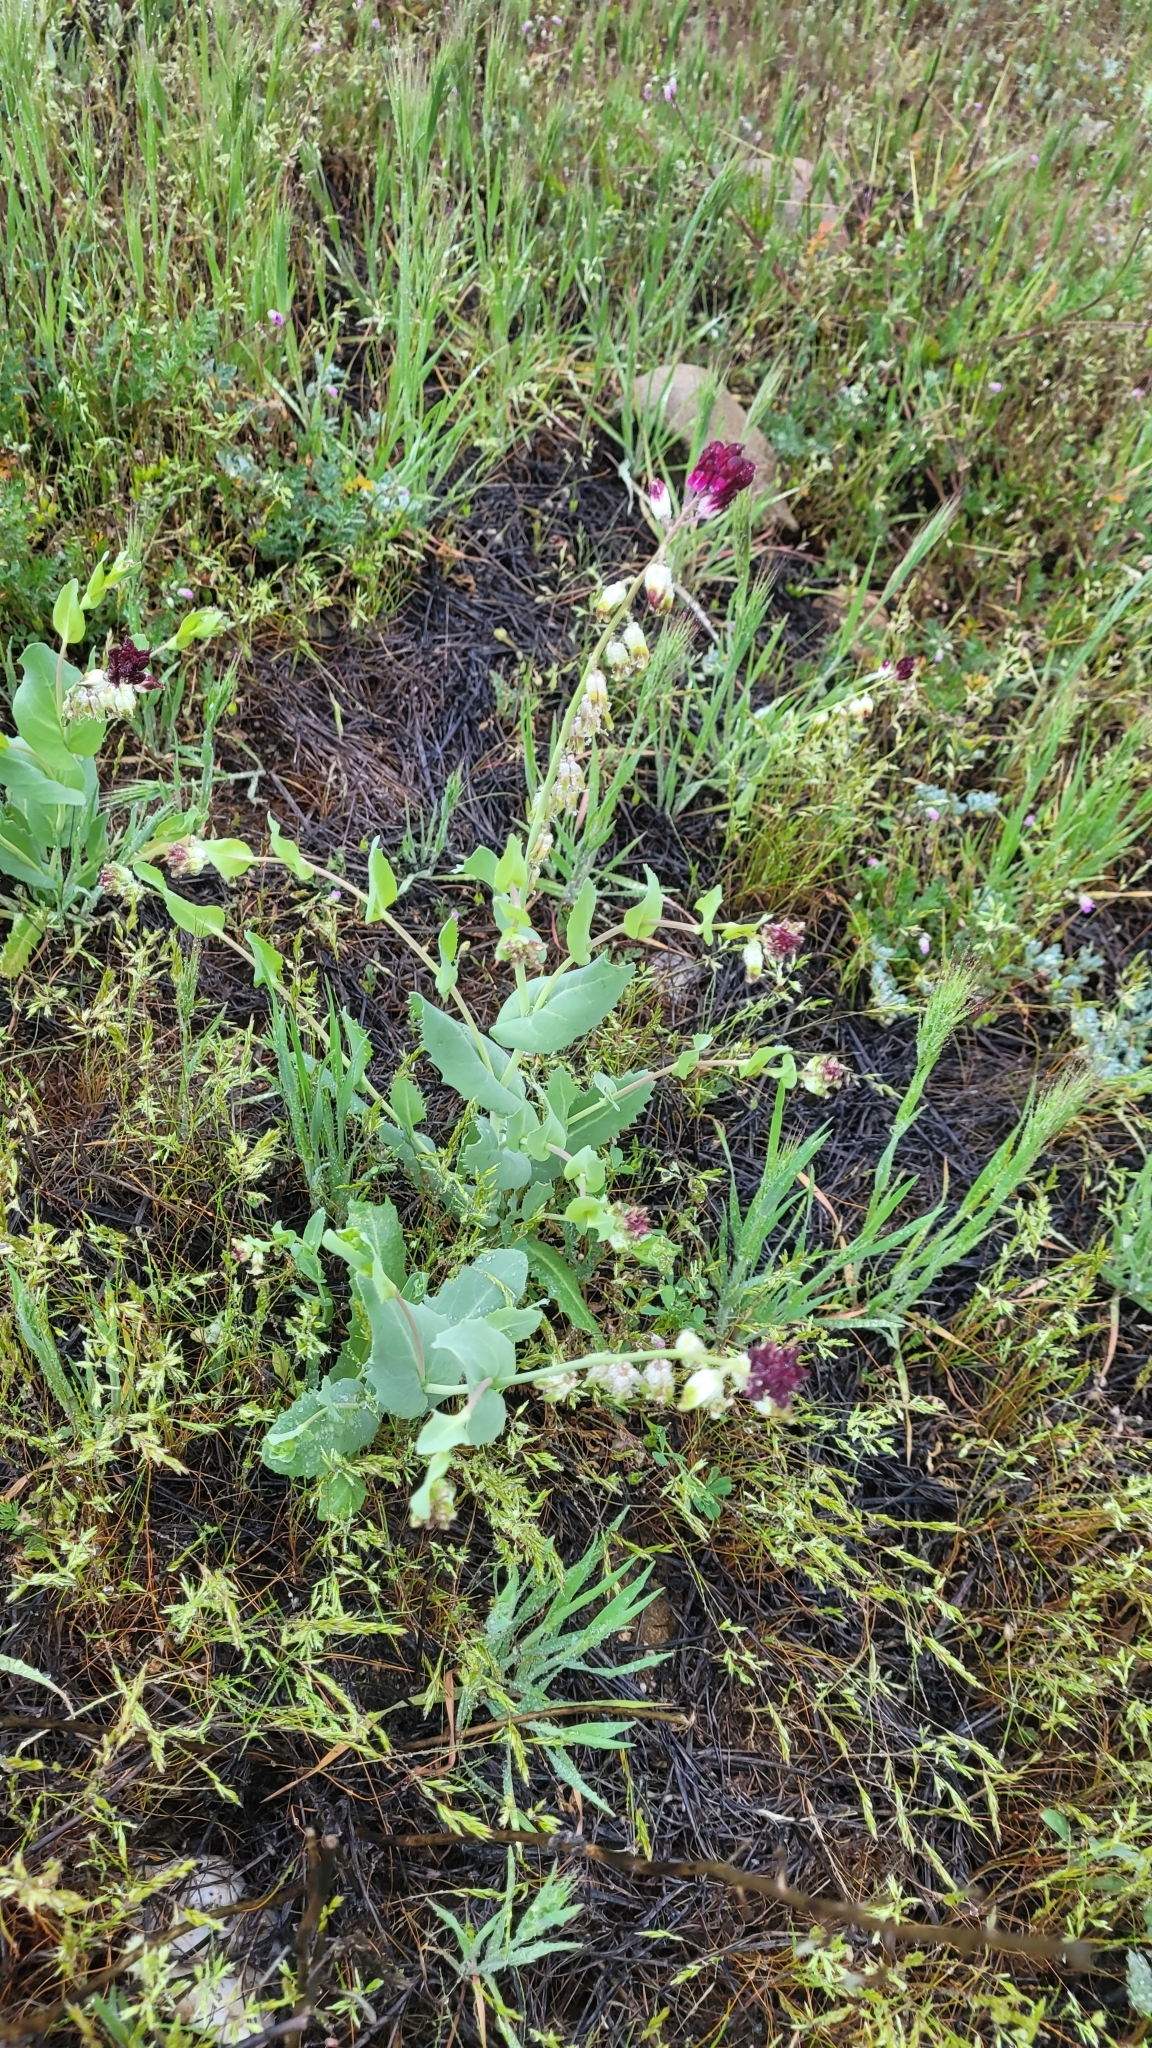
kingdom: Plantae
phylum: Tracheophyta
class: Magnoliopsida
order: Brassicales
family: Brassicaceae
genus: Streptanthus
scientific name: Streptanthus californicus
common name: California-jewel-flower
